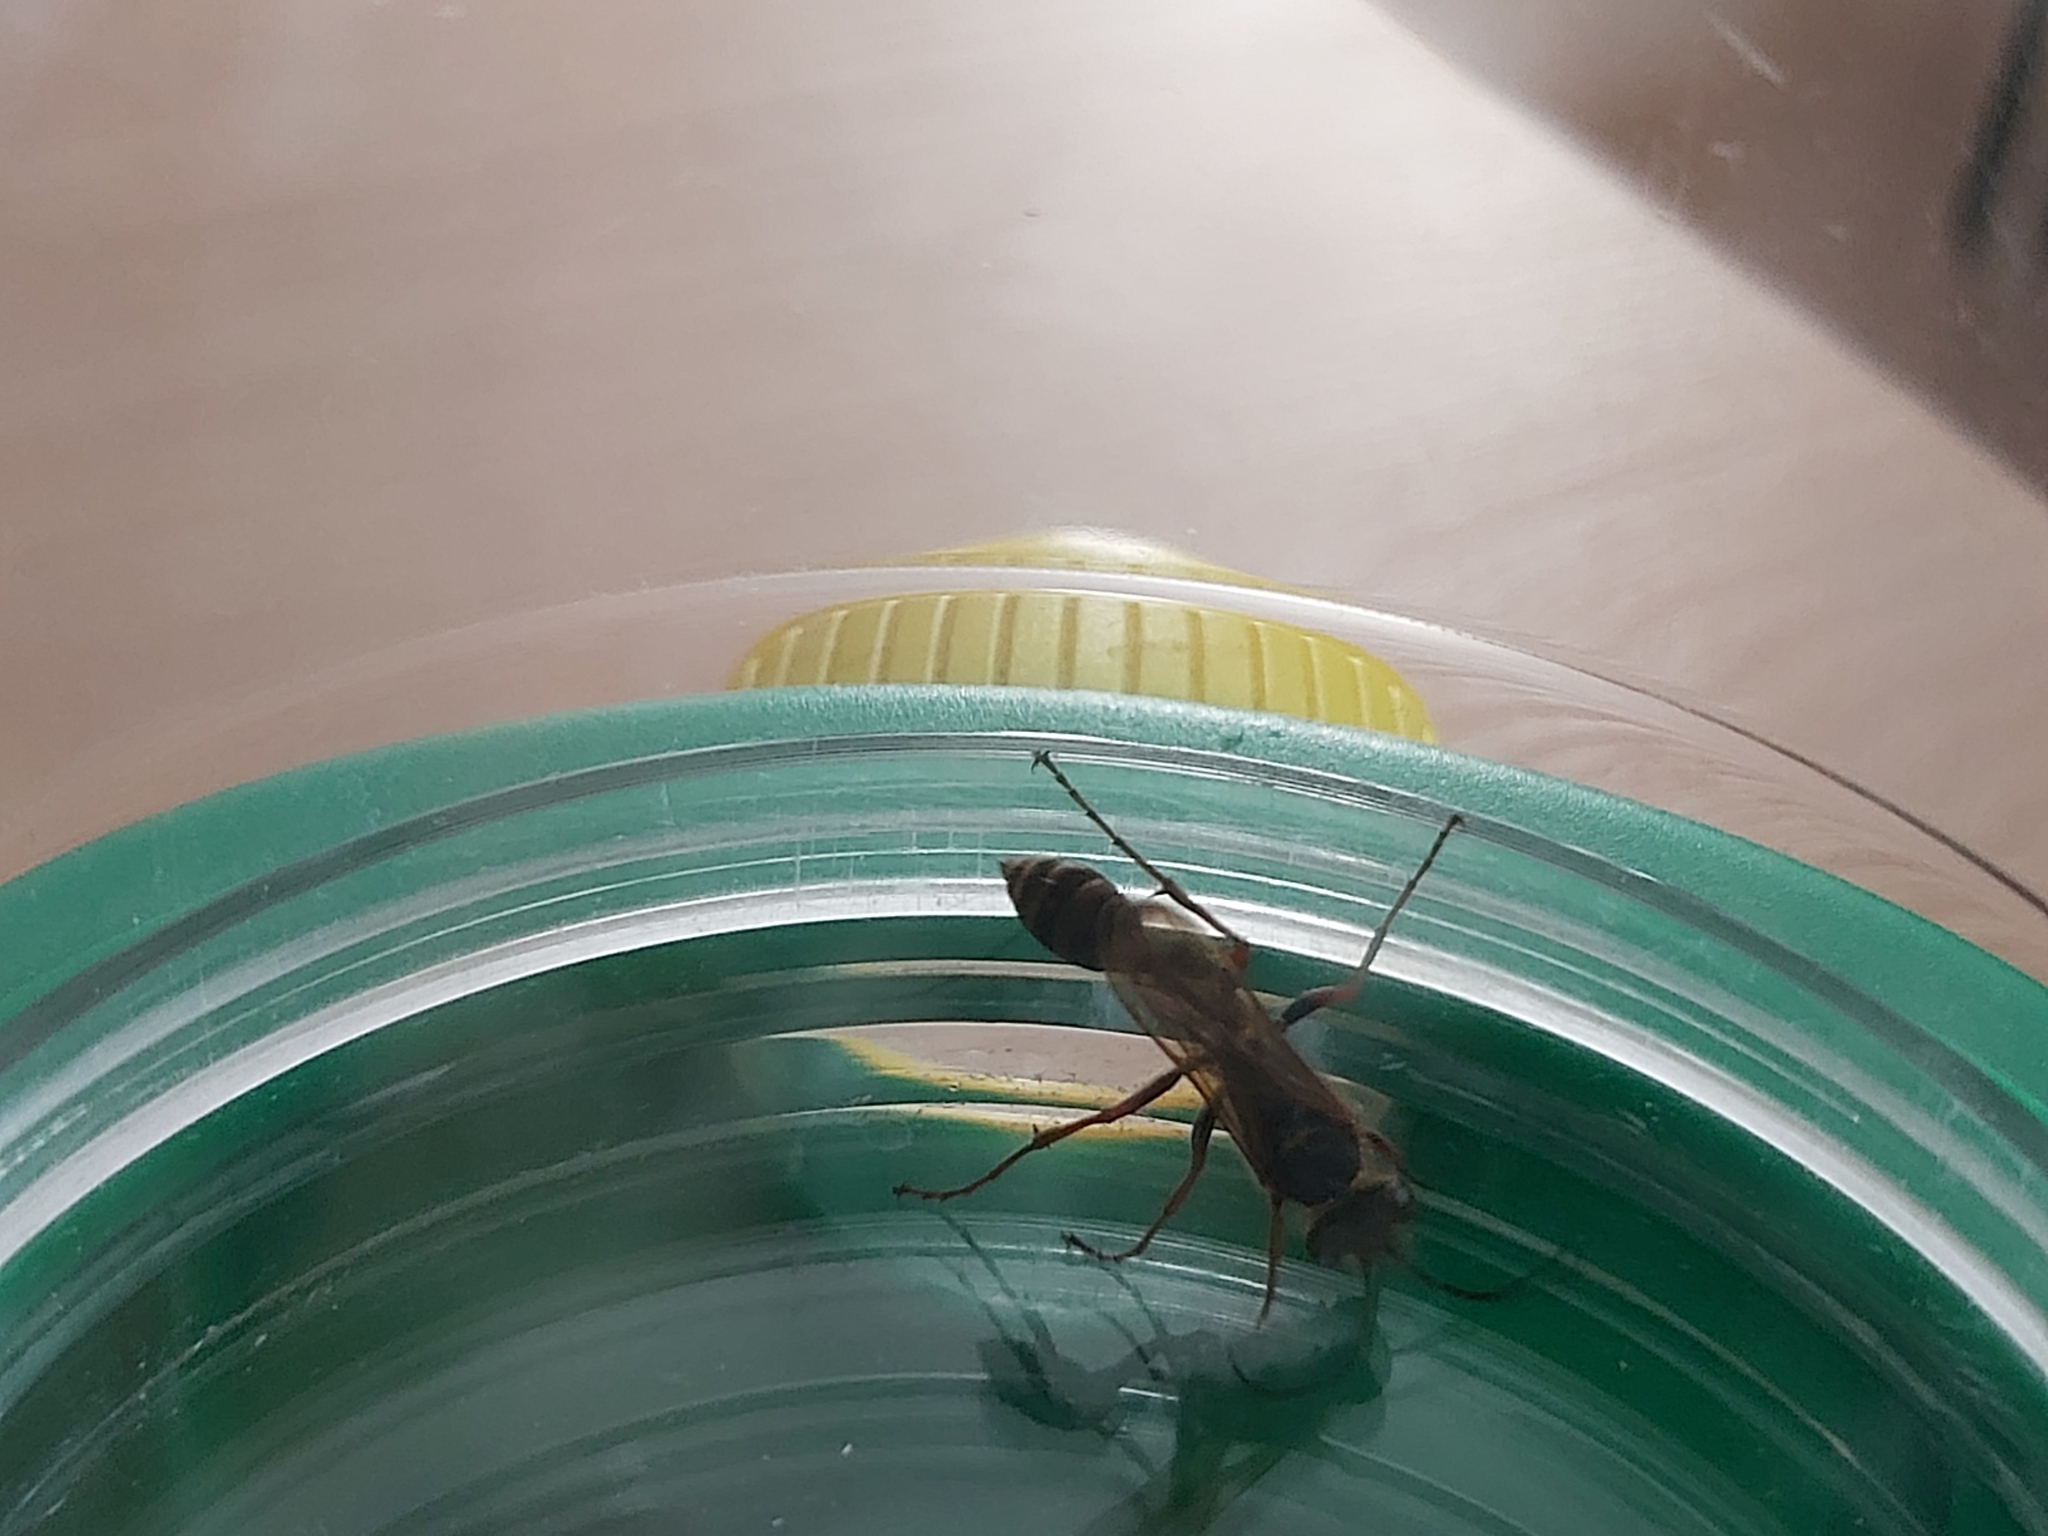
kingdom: Animalia
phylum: Arthropoda
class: Insecta
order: Hymenoptera
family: Sphecidae
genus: Sceliphron
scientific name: Sceliphron curvatum
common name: Pèlopèe
